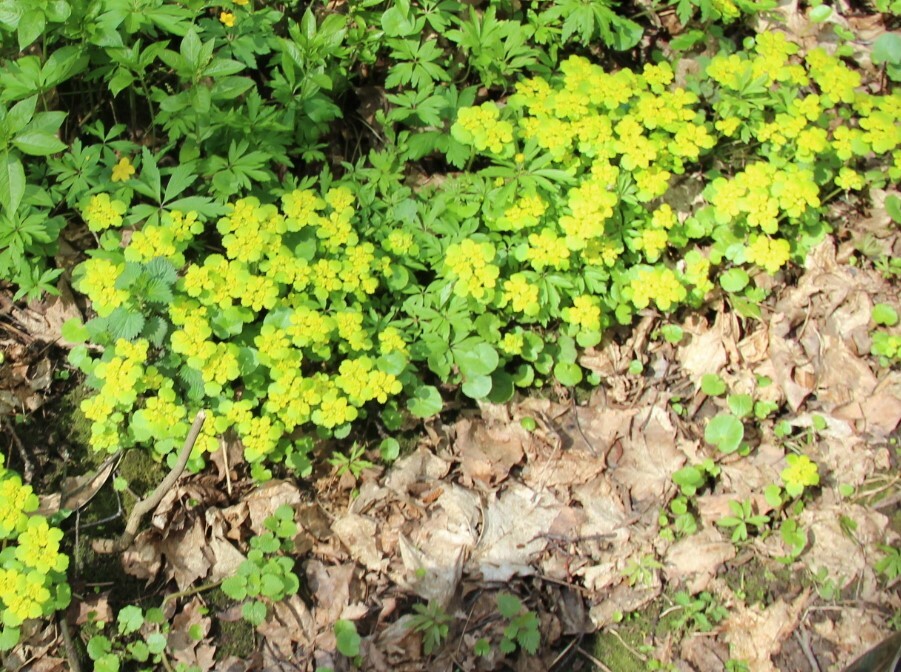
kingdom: Plantae
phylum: Tracheophyta
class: Magnoliopsida
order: Saxifragales
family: Saxifragaceae
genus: Chrysosplenium
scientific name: Chrysosplenium alternifolium
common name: Alternate-leaved golden-saxifrage
